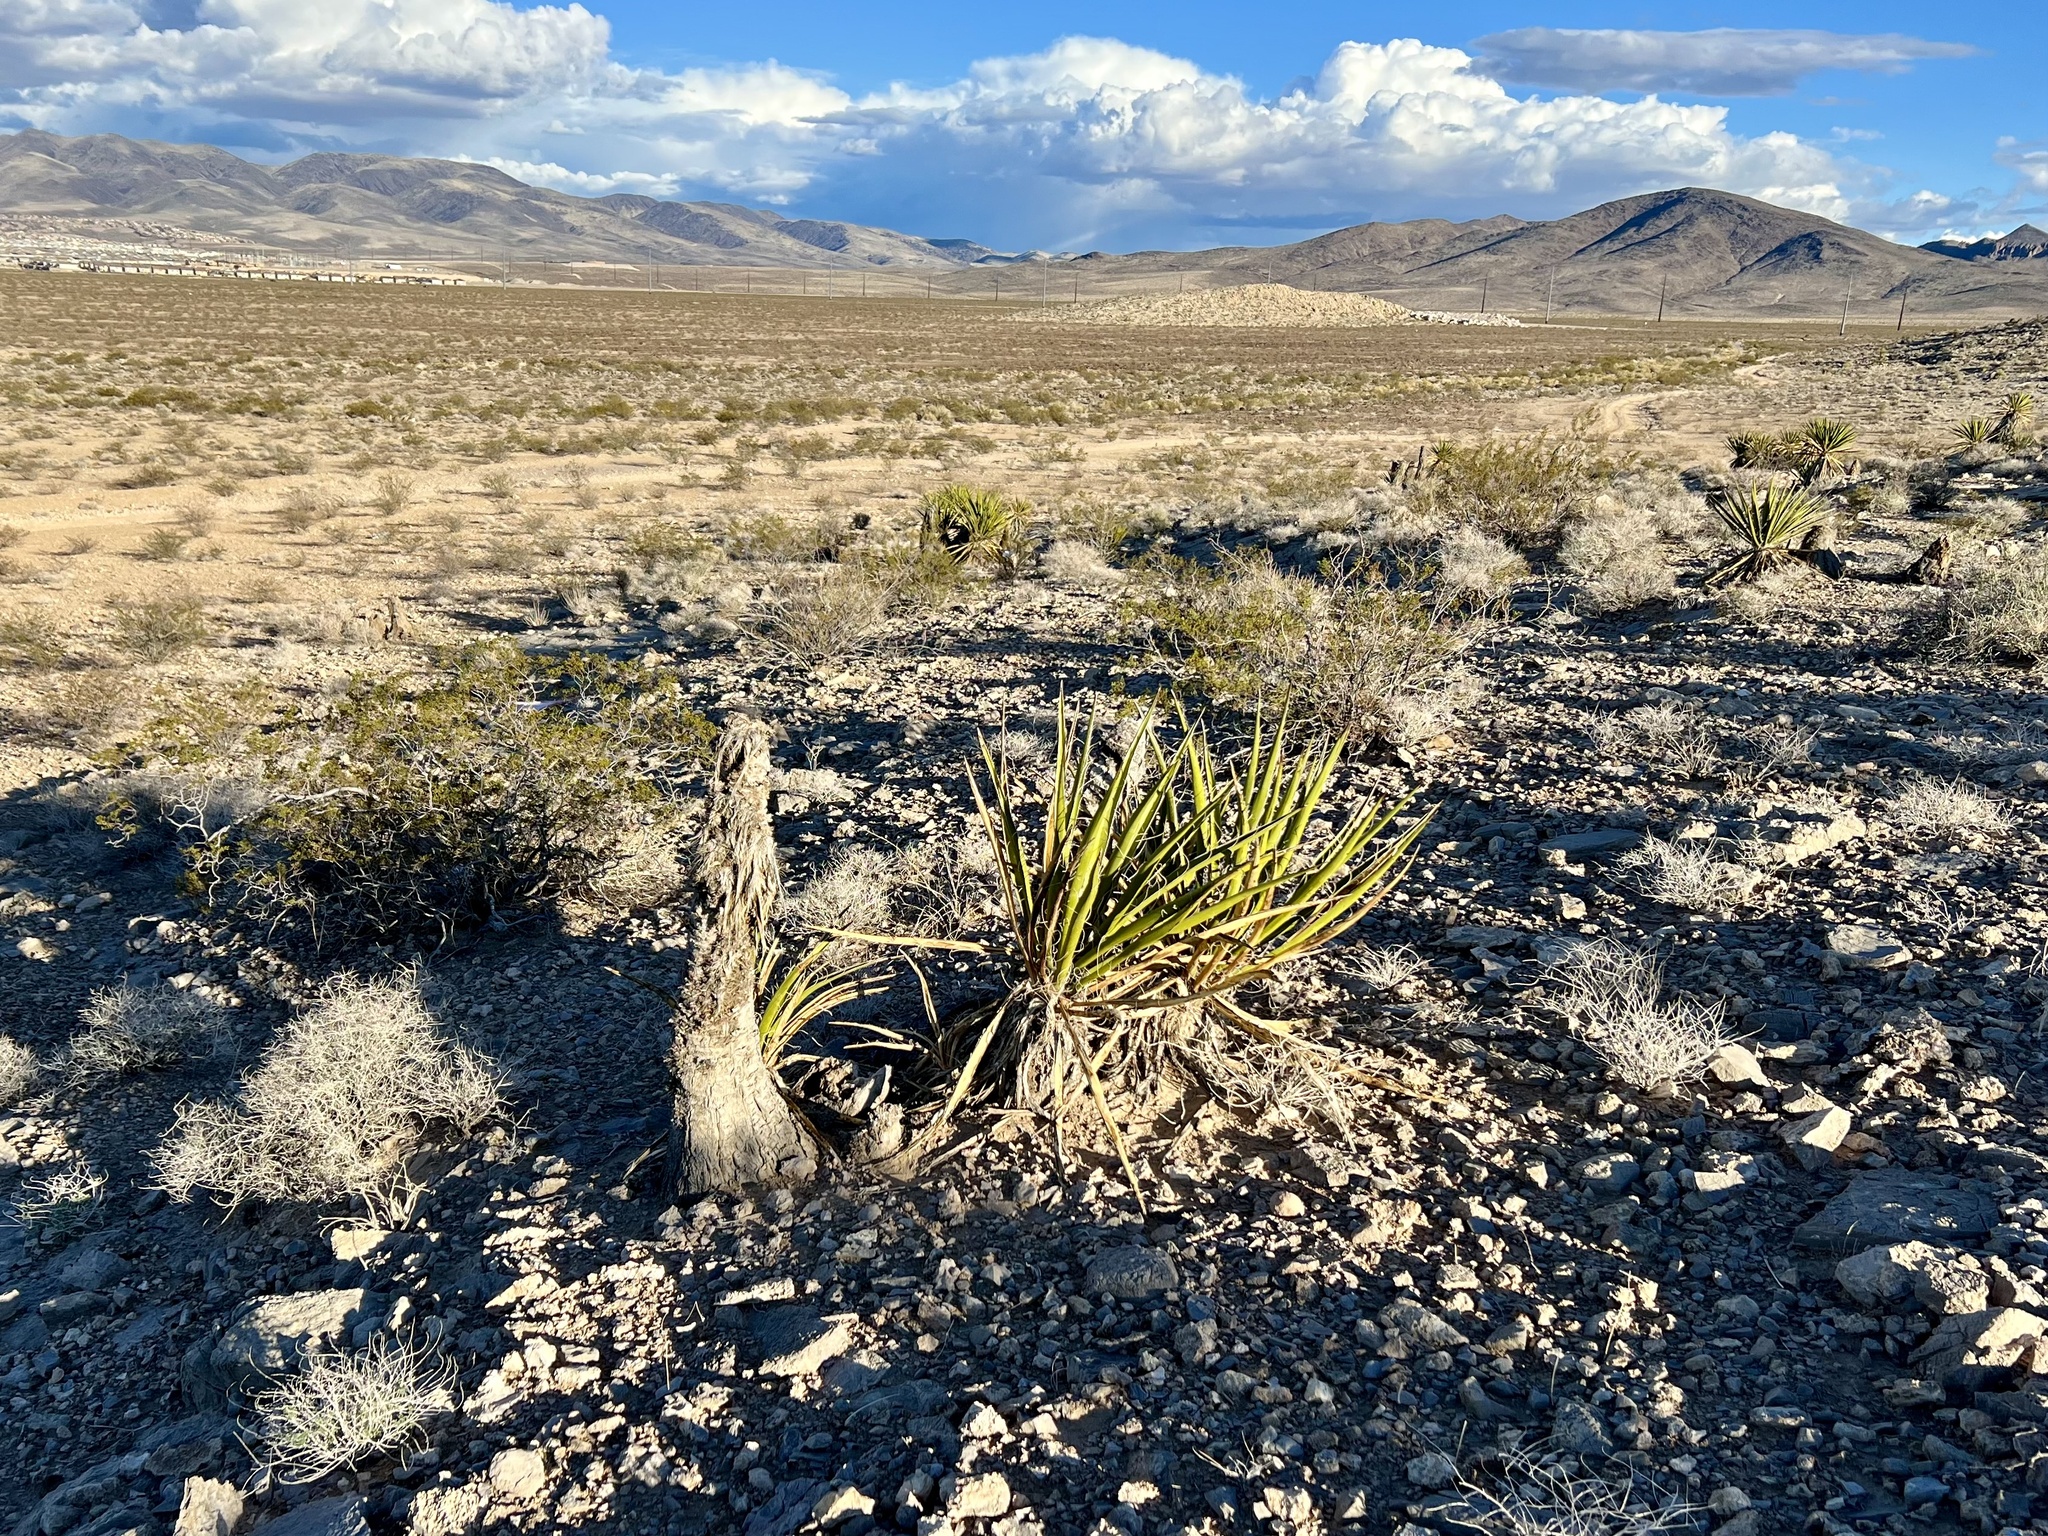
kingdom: Plantae
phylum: Tracheophyta
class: Liliopsida
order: Asparagales
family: Asparagaceae
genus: Yucca
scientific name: Yucca schidigera
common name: Mojave yucca
